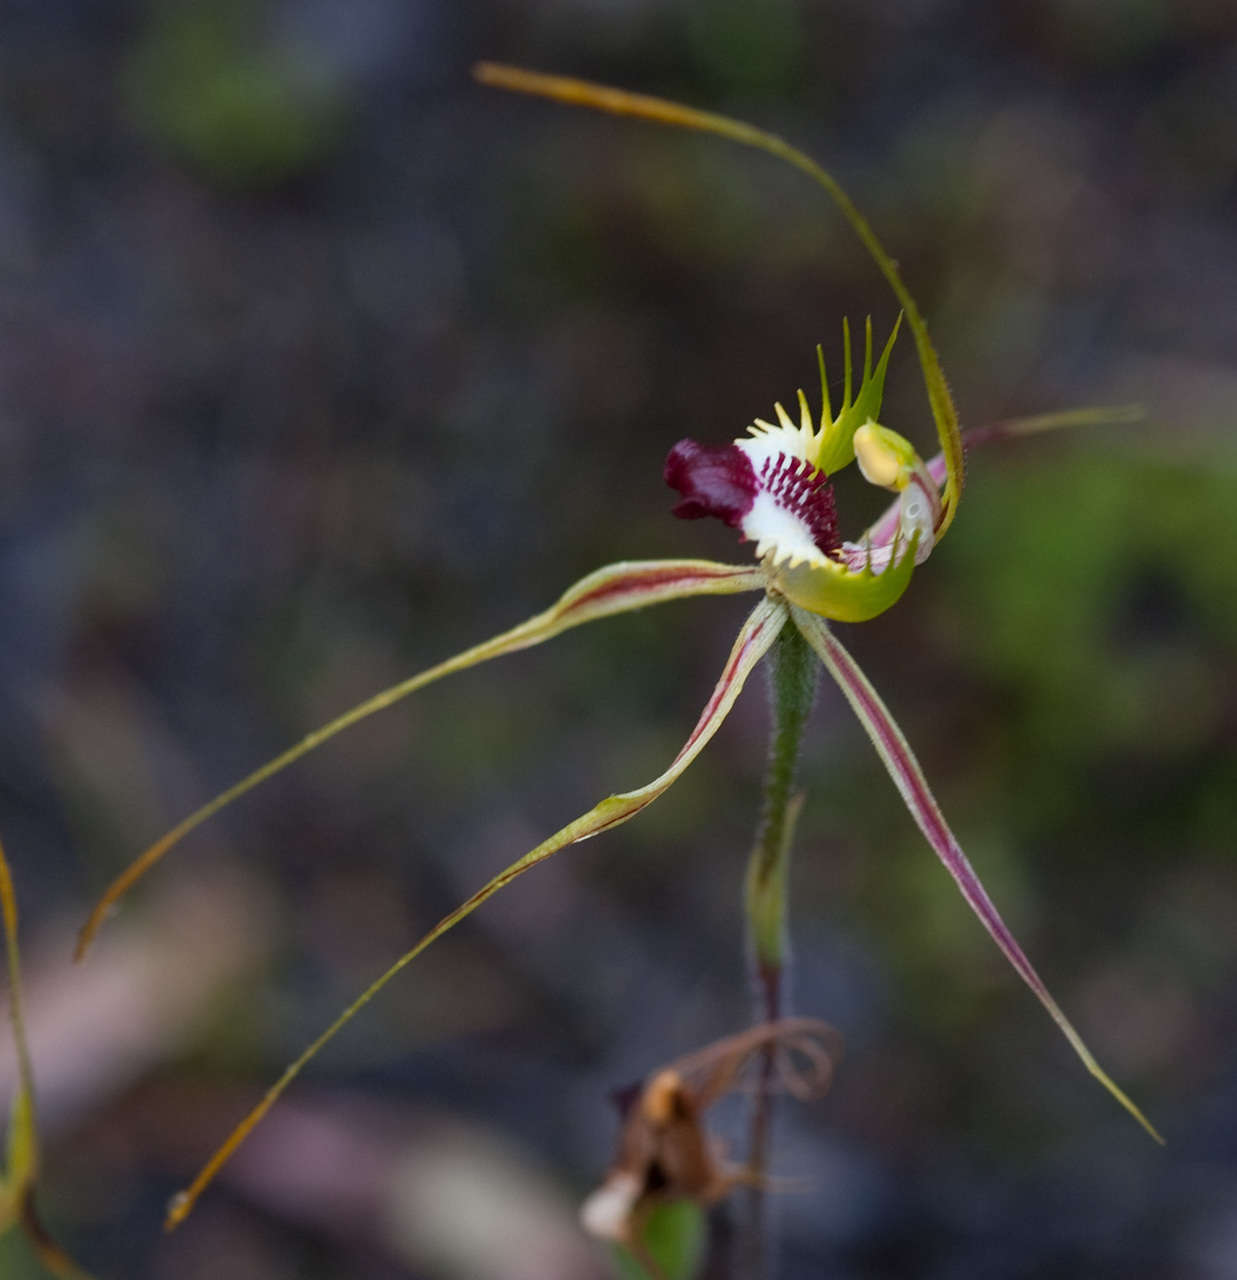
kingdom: Plantae
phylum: Tracheophyta
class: Liliopsida
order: Asparagales
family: Orchidaceae
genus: Caladenia
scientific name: Caladenia tentaculata
